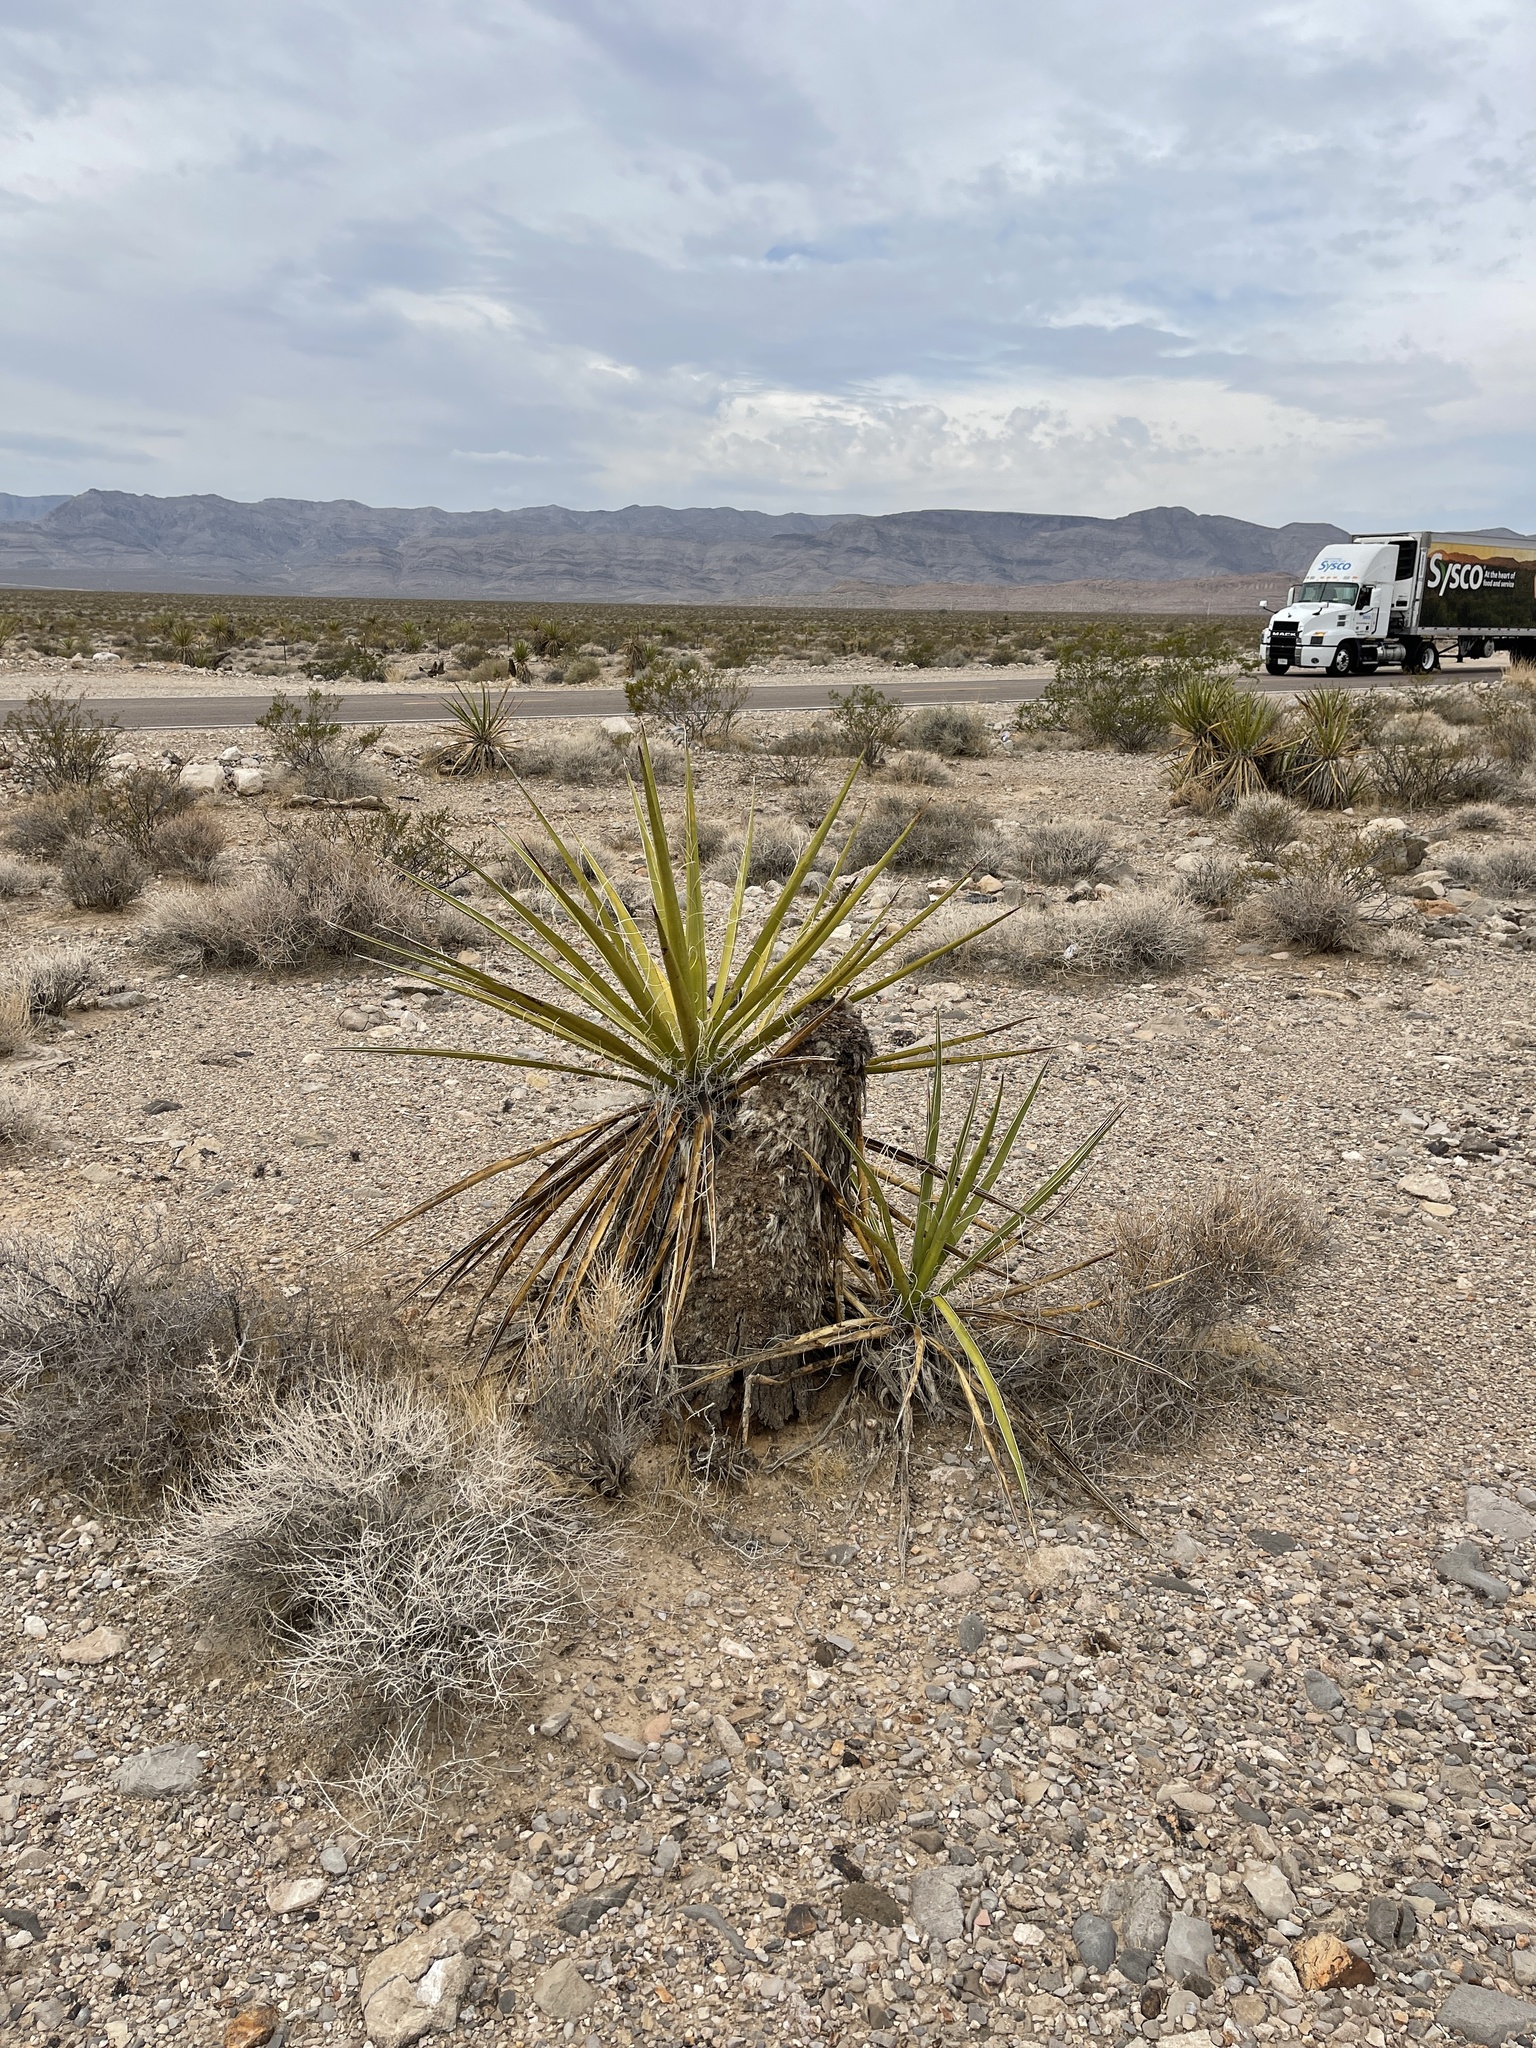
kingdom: Plantae
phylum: Tracheophyta
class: Liliopsida
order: Asparagales
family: Asparagaceae
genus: Yucca
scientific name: Yucca schidigera
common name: Mojave yucca
